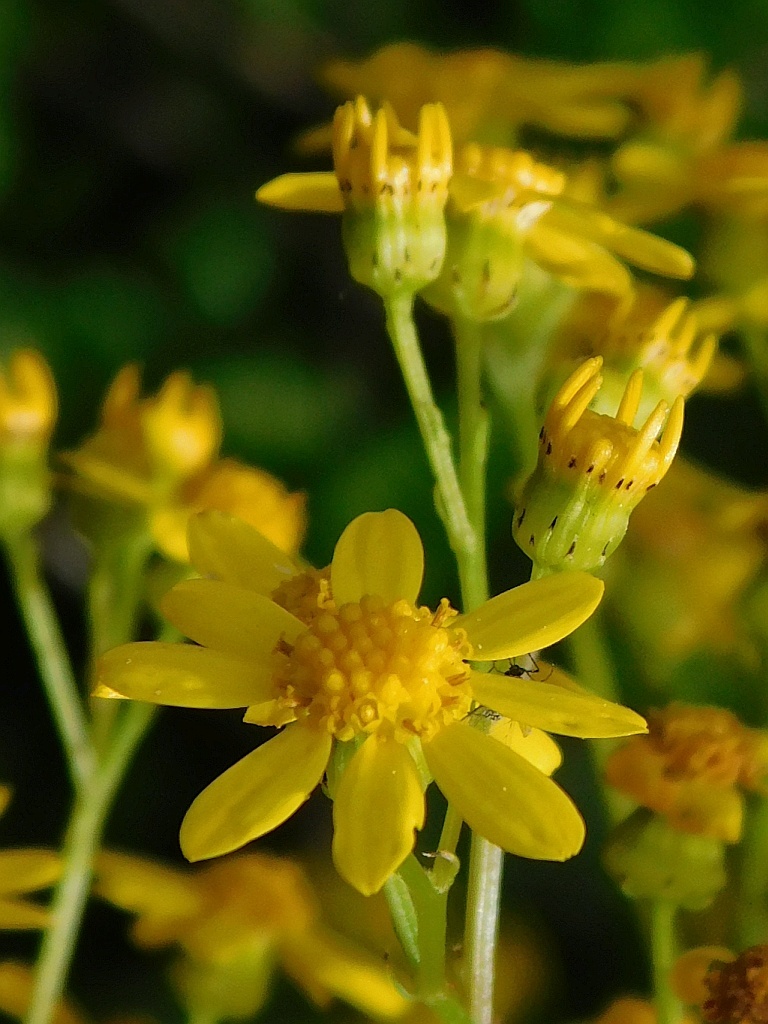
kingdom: Plantae
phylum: Tracheophyta
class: Magnoliopsida
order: Asterales
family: Asteraceae
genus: Senecio
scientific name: Senecio inaequidens
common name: Narrow-leaved ragwort
